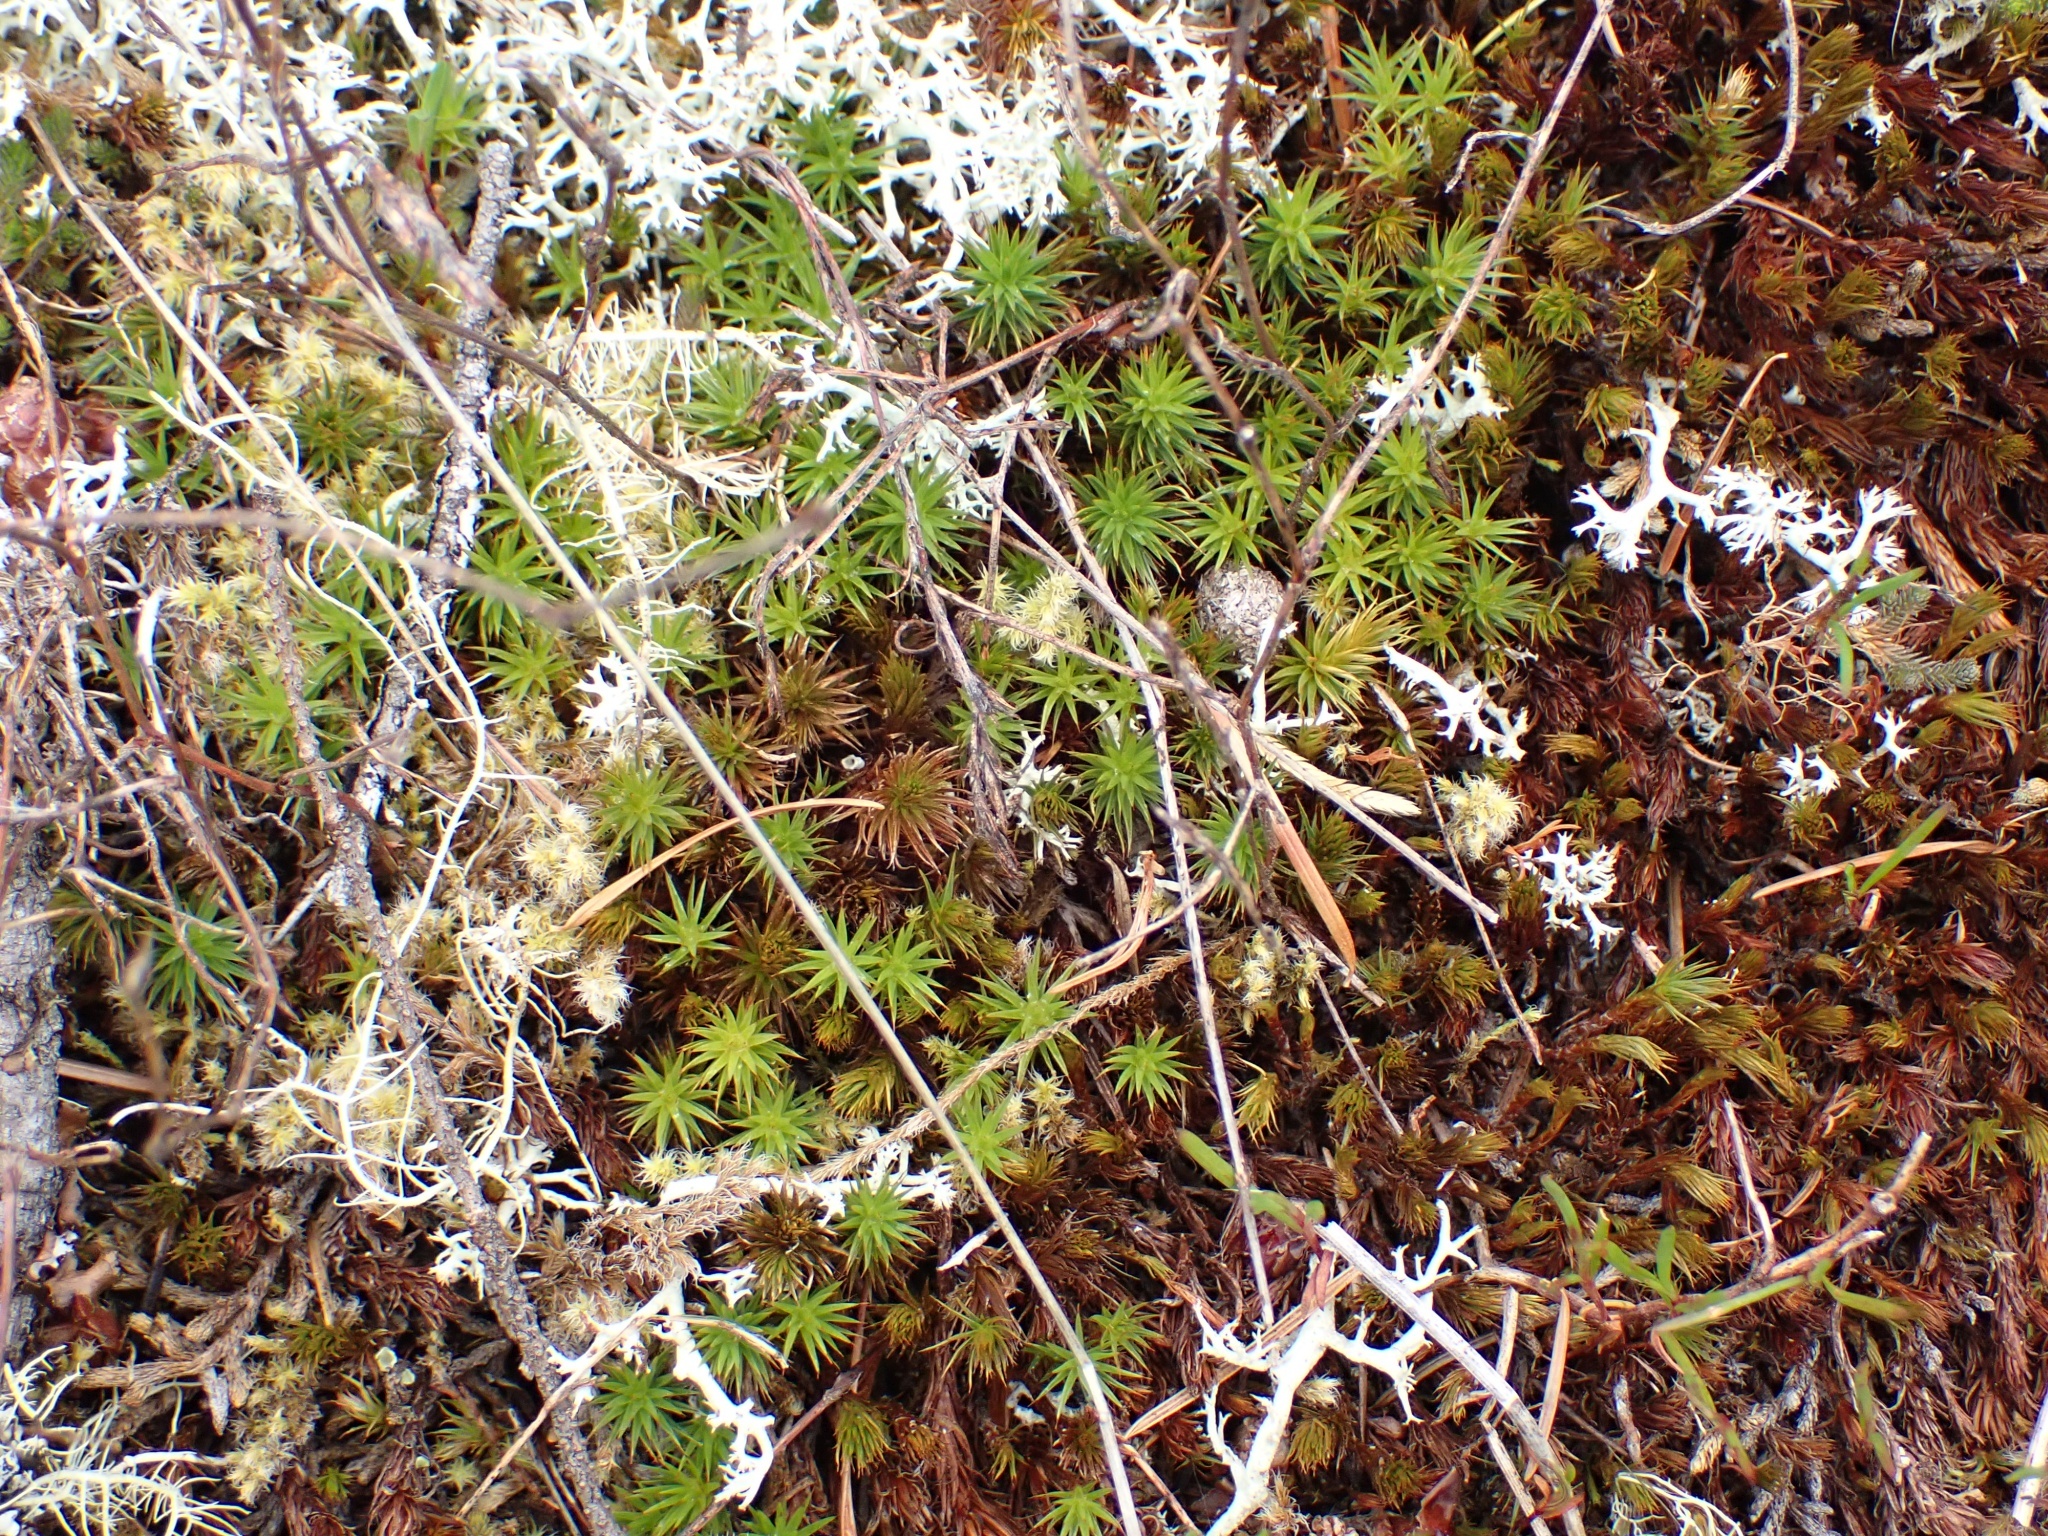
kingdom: Plantae
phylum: Bryophyta
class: Polytrichopsida
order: Polytrichales
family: Polytrichaceae
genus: Polytrichum
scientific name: Polytrichum juniperinum
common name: Juniper haircap moss
